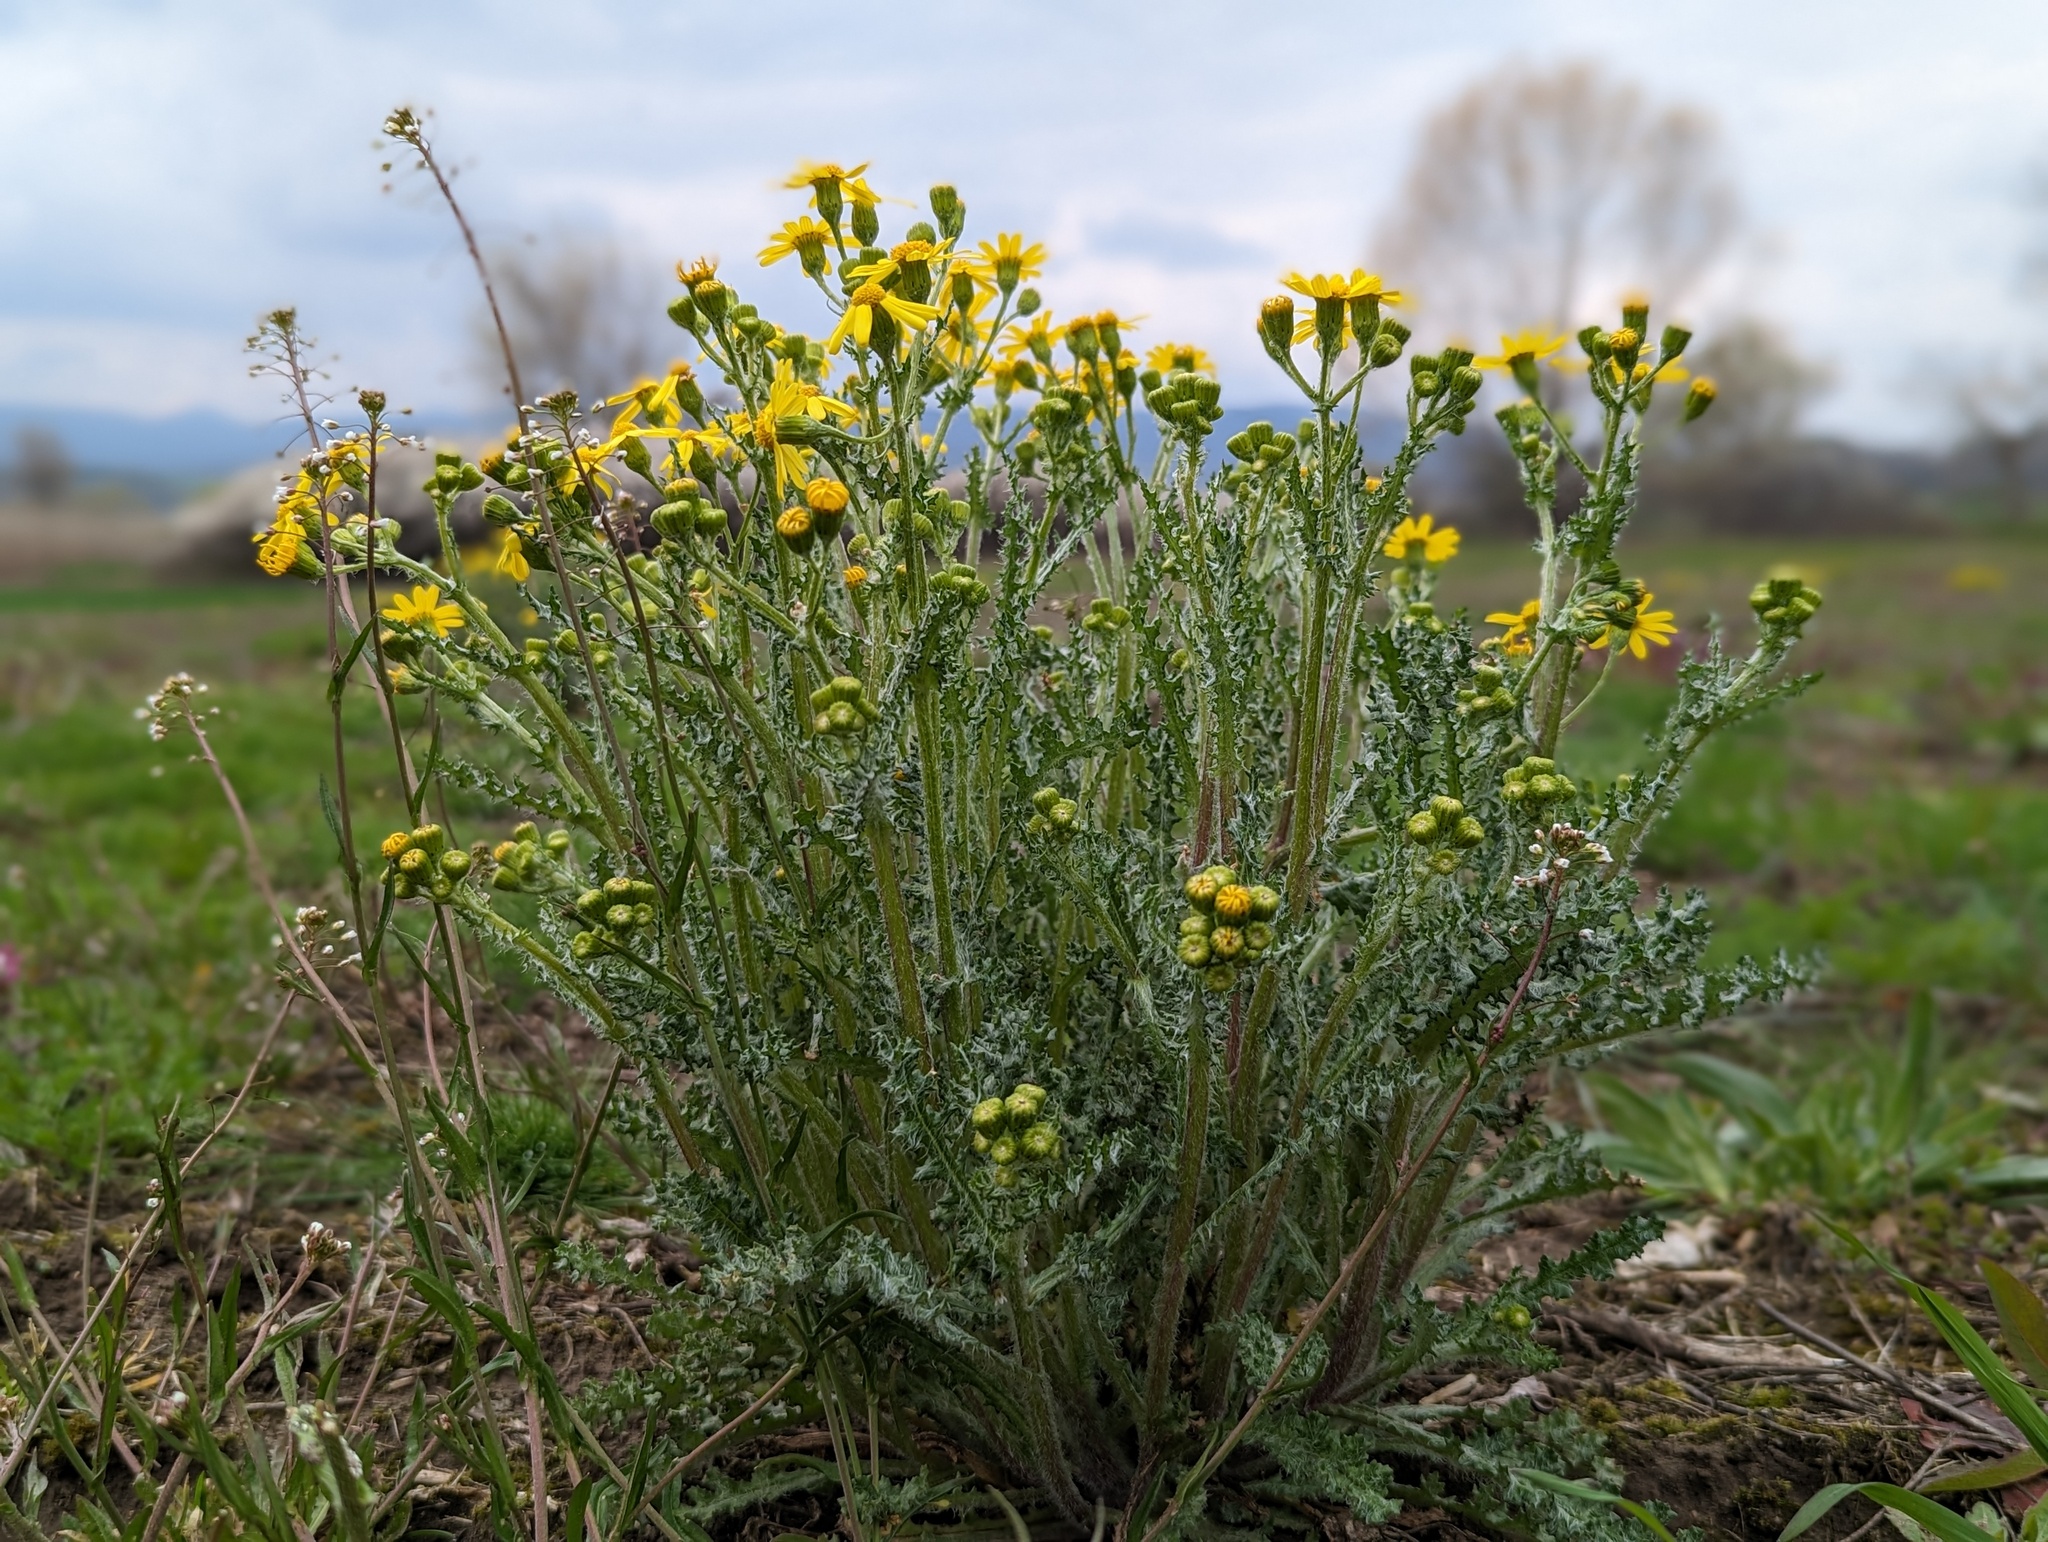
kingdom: Plantae
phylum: Tracheophyta
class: Magnoliopsida
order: Asterales
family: Asteraceae
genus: Senecio
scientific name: Senecio vernalis
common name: Eastern groundsel
